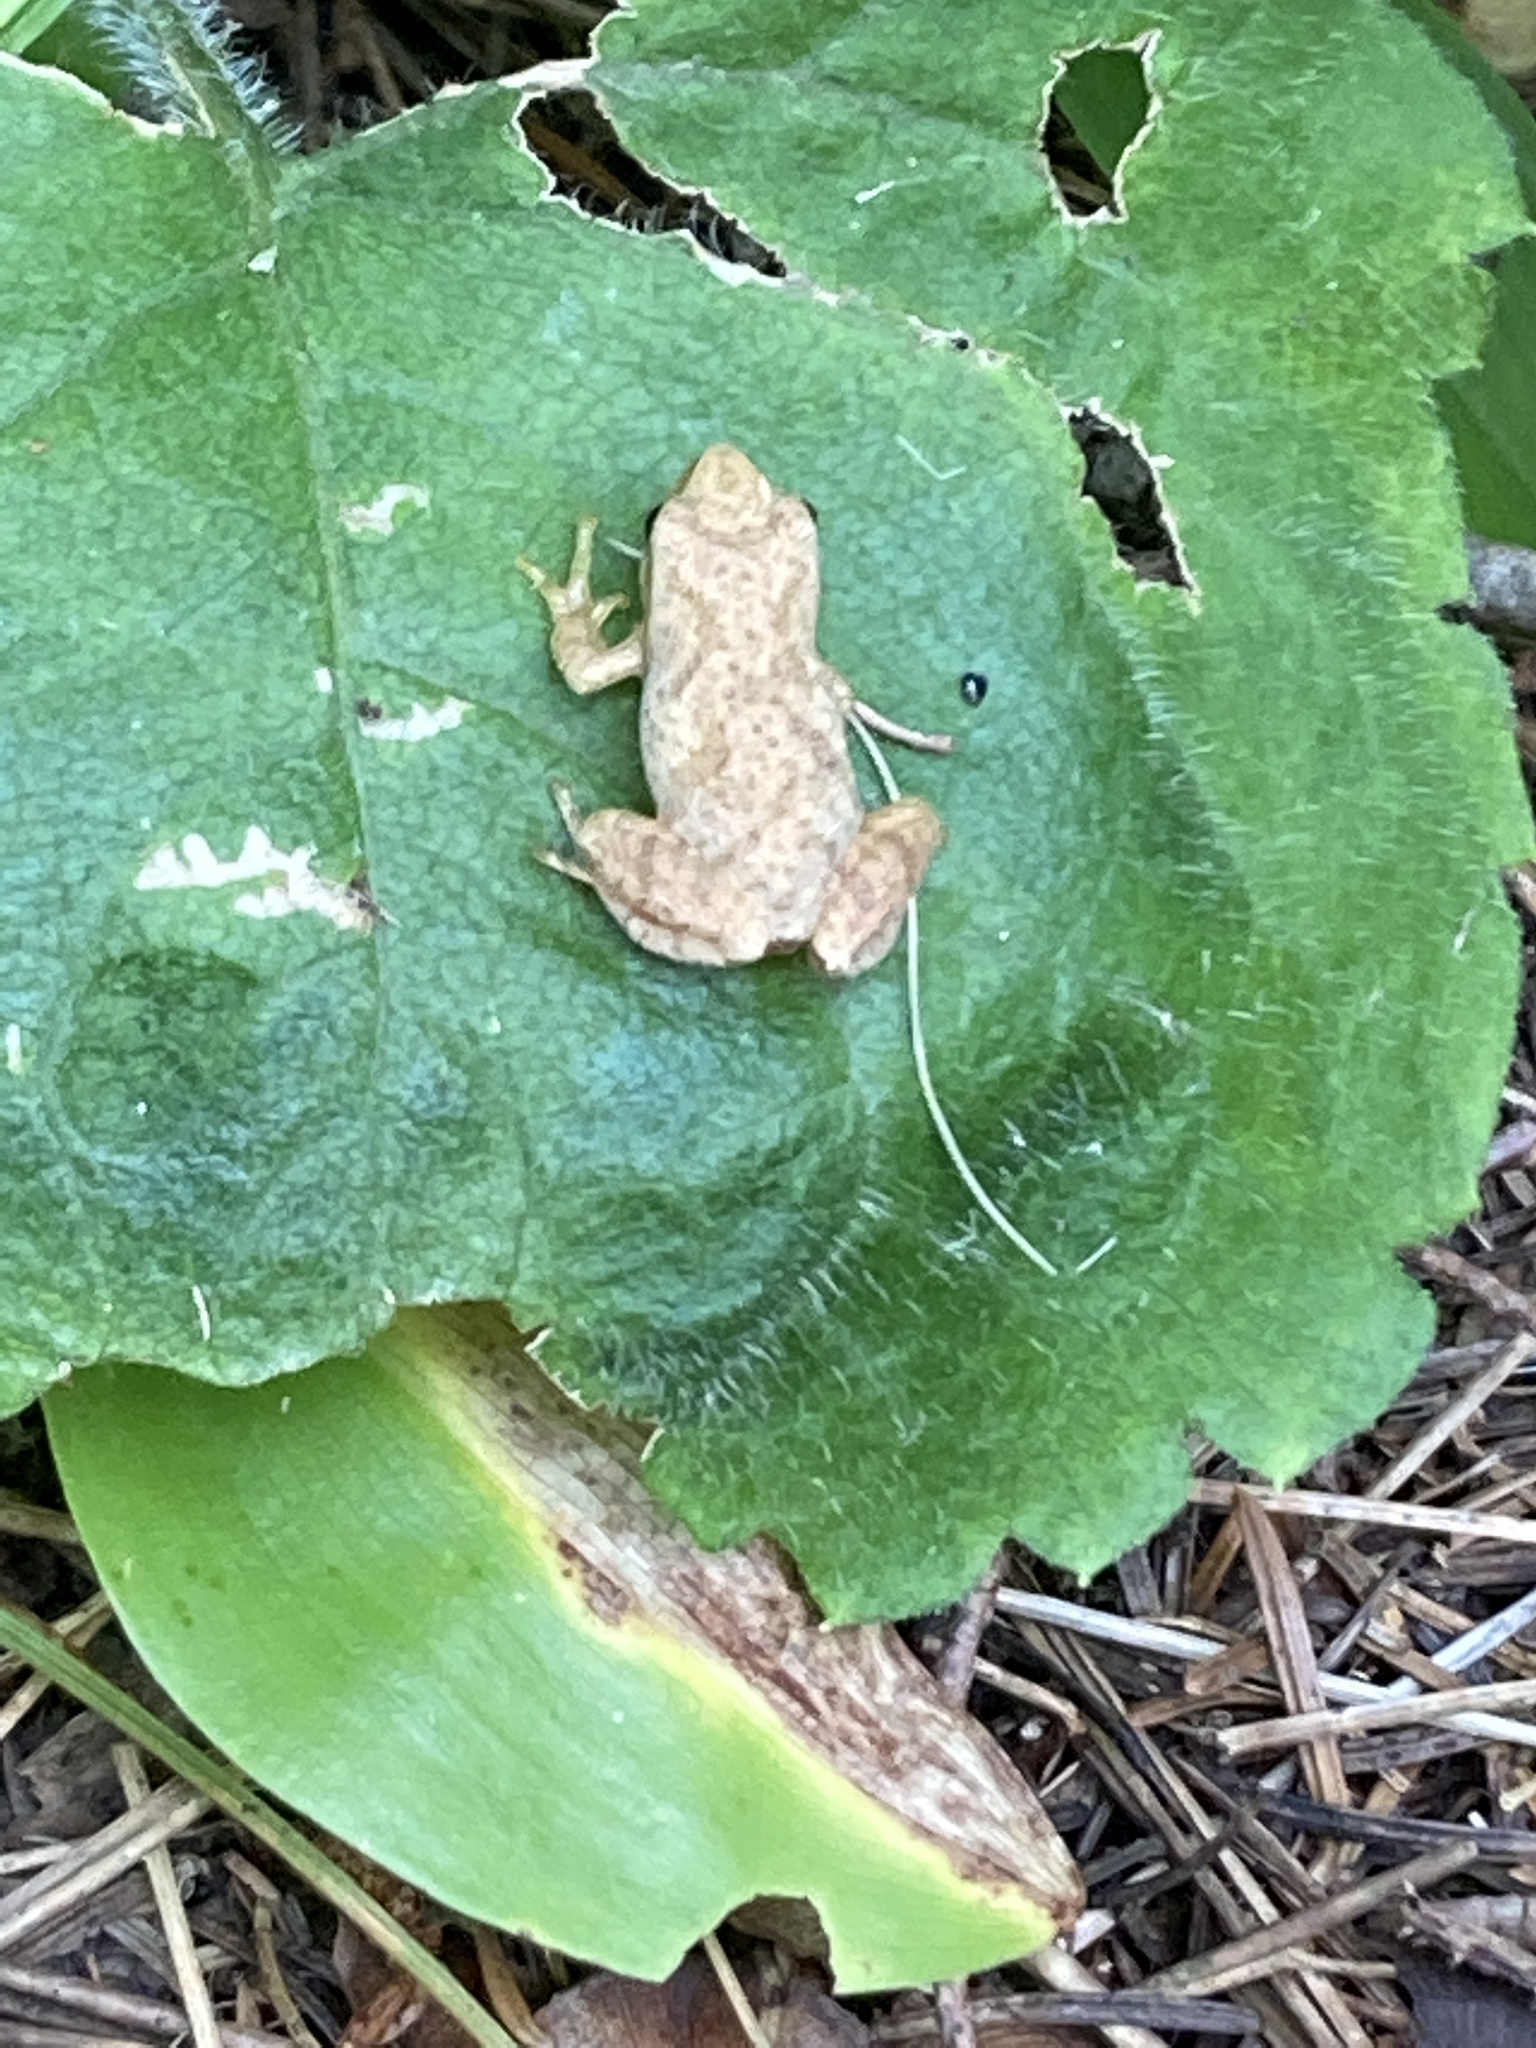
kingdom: Animalia
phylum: Chordata
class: Amphibia
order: Anura
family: Hylidae
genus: Pseudacris
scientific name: Pseudacris crucifer
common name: Spring peeper
